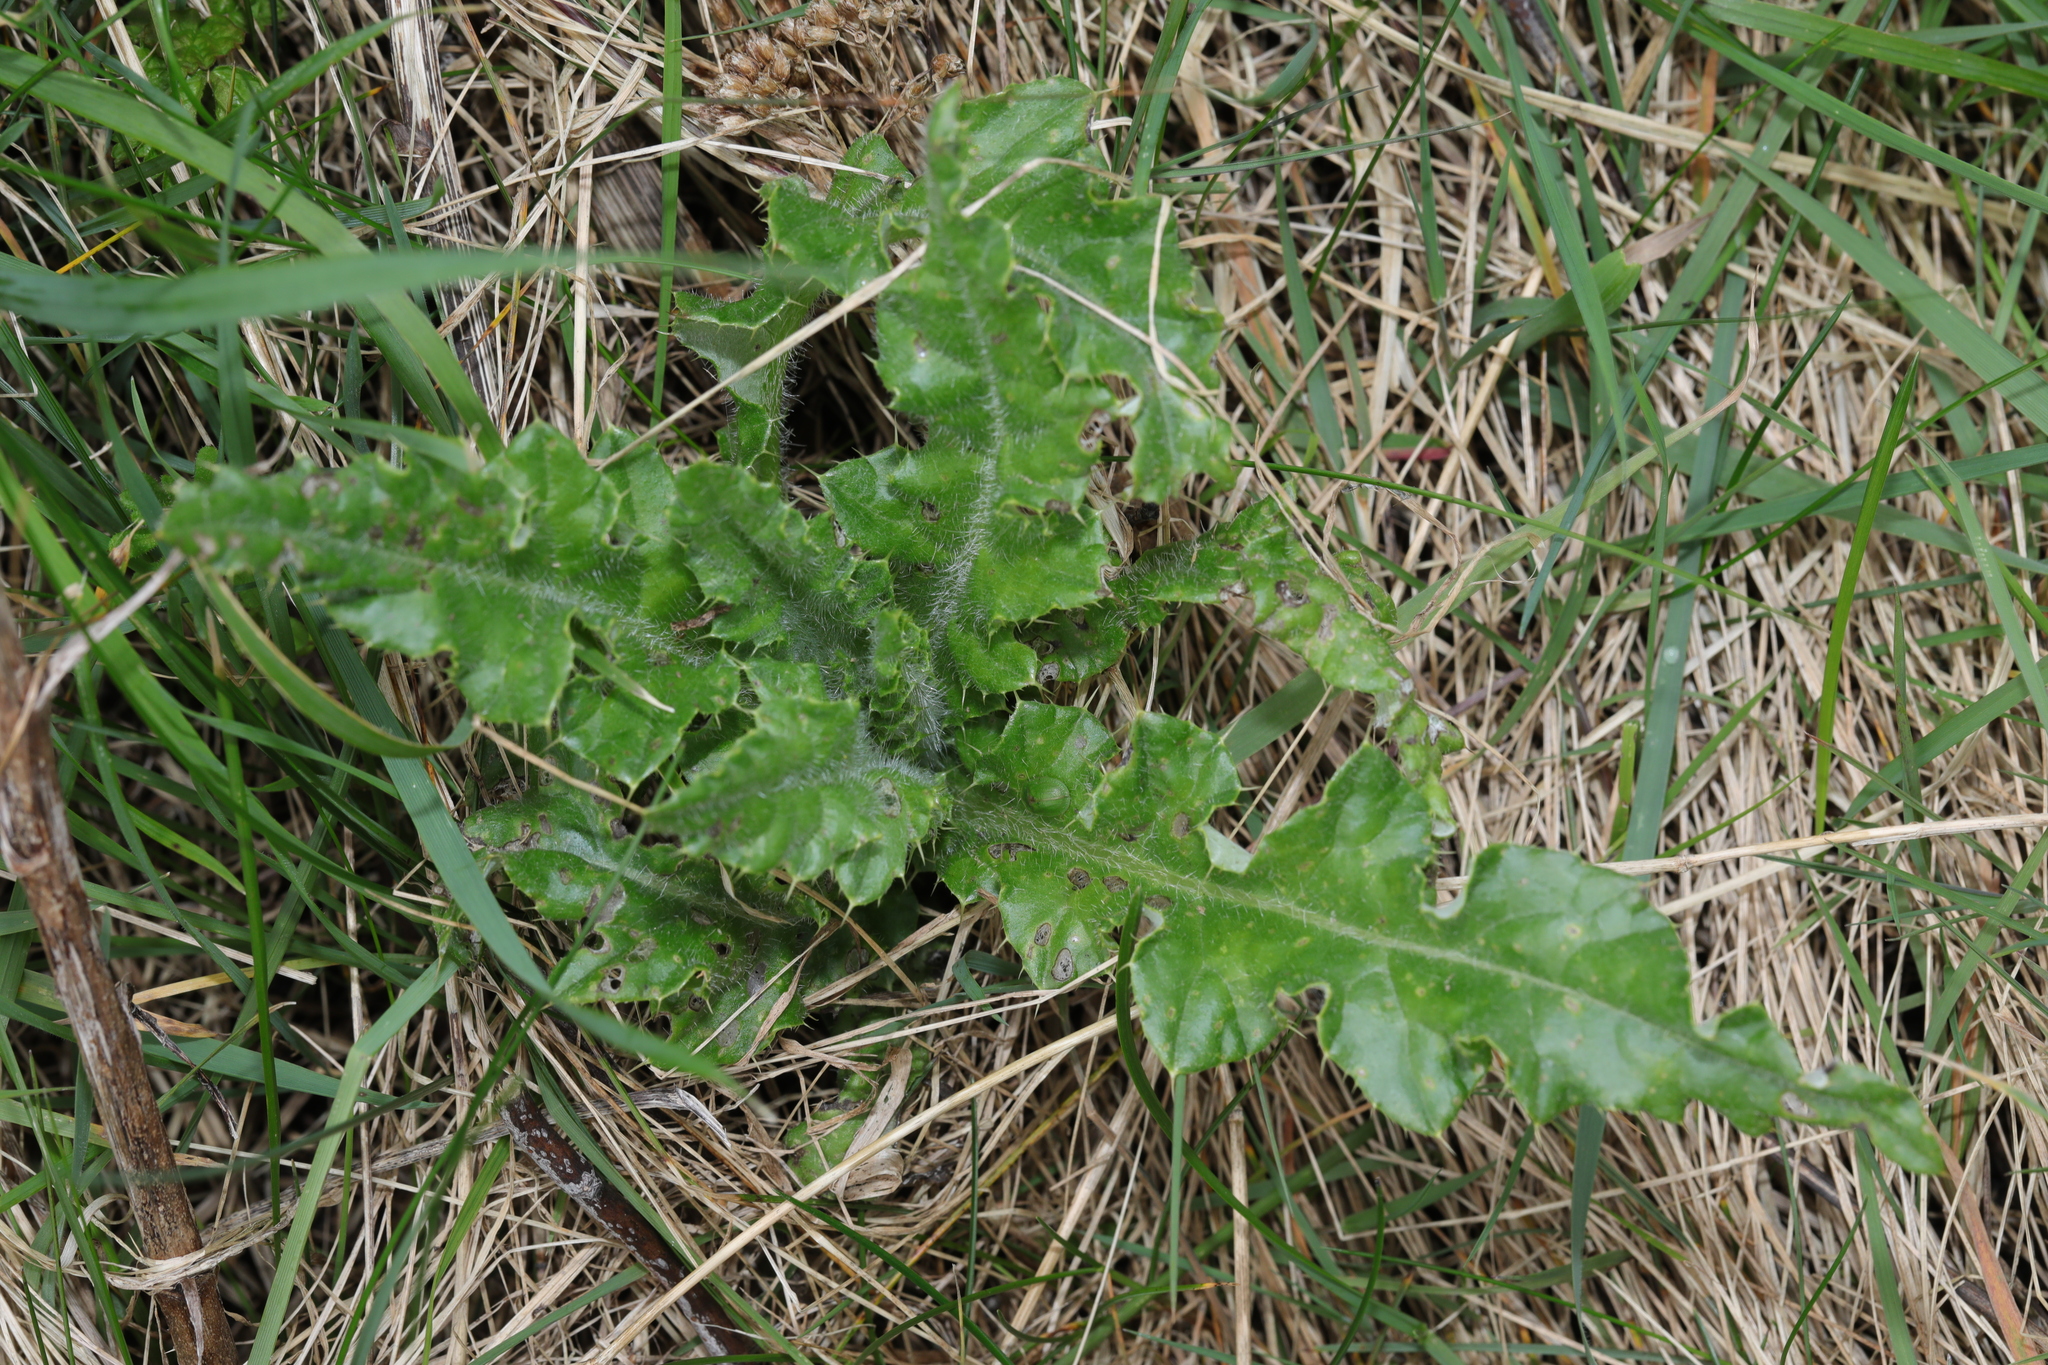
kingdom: Plantae
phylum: Tracheophyta
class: Magnoliopsida
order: Asterales
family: Asteraceae
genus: Cirsium
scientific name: Cirsium arvense
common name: Creeping thistle
